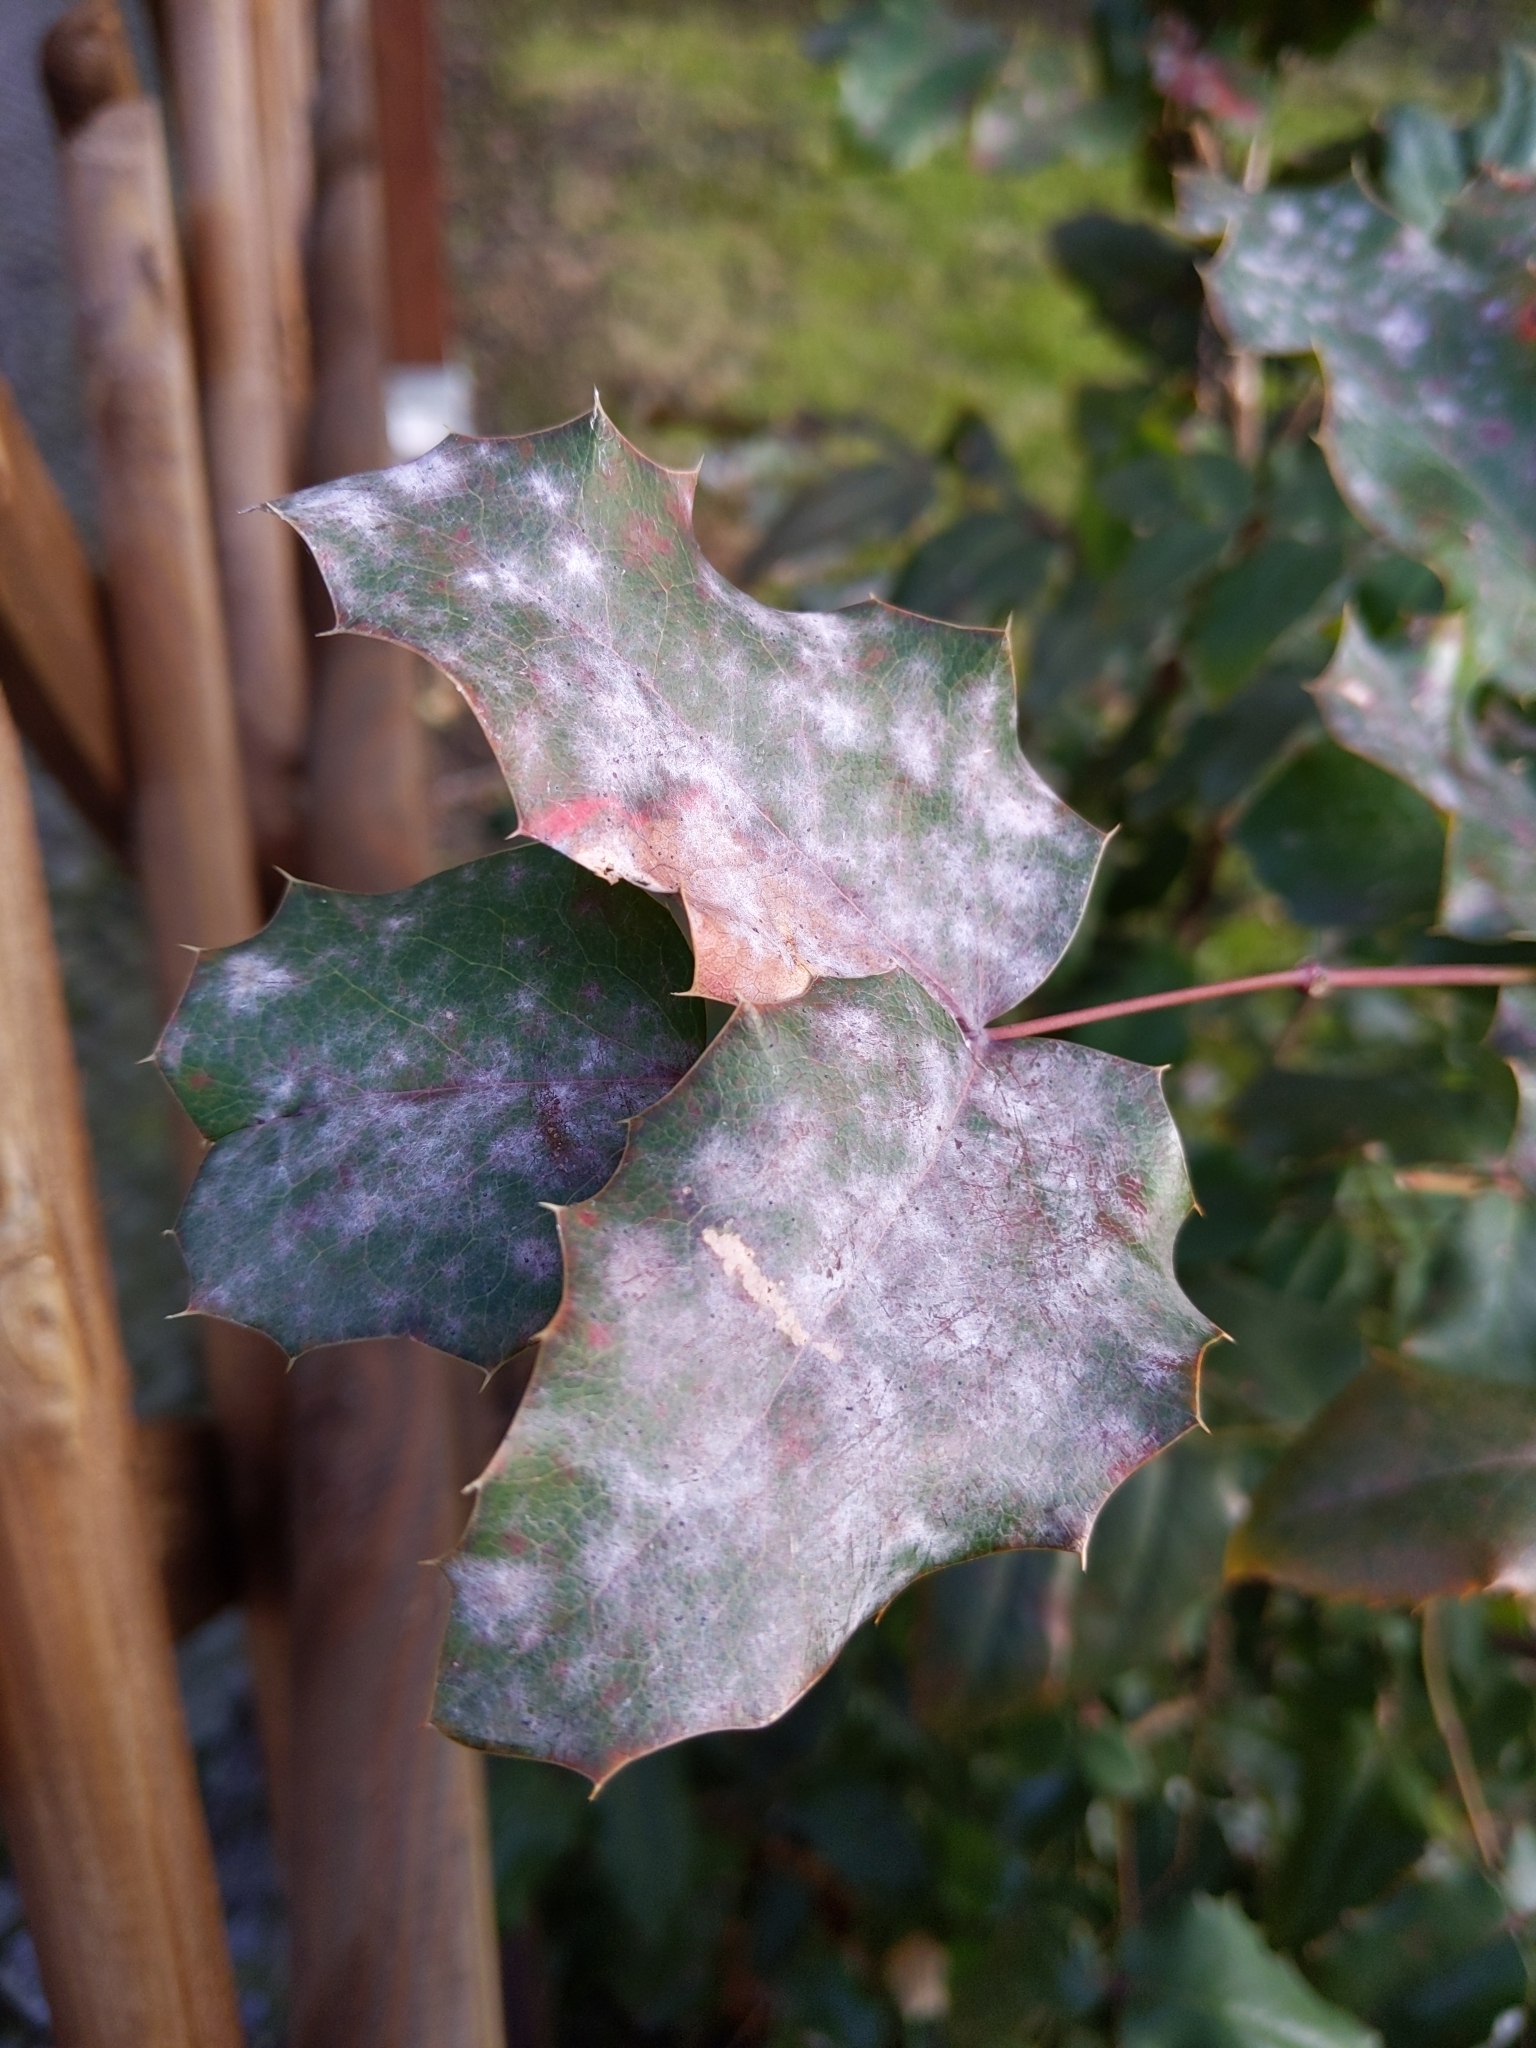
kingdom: Fungi
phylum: Ascomycota
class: Leotiomycetes
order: Helotiales
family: Erysiphaceae
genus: Erysiphe
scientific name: Erysiphe berberidis
